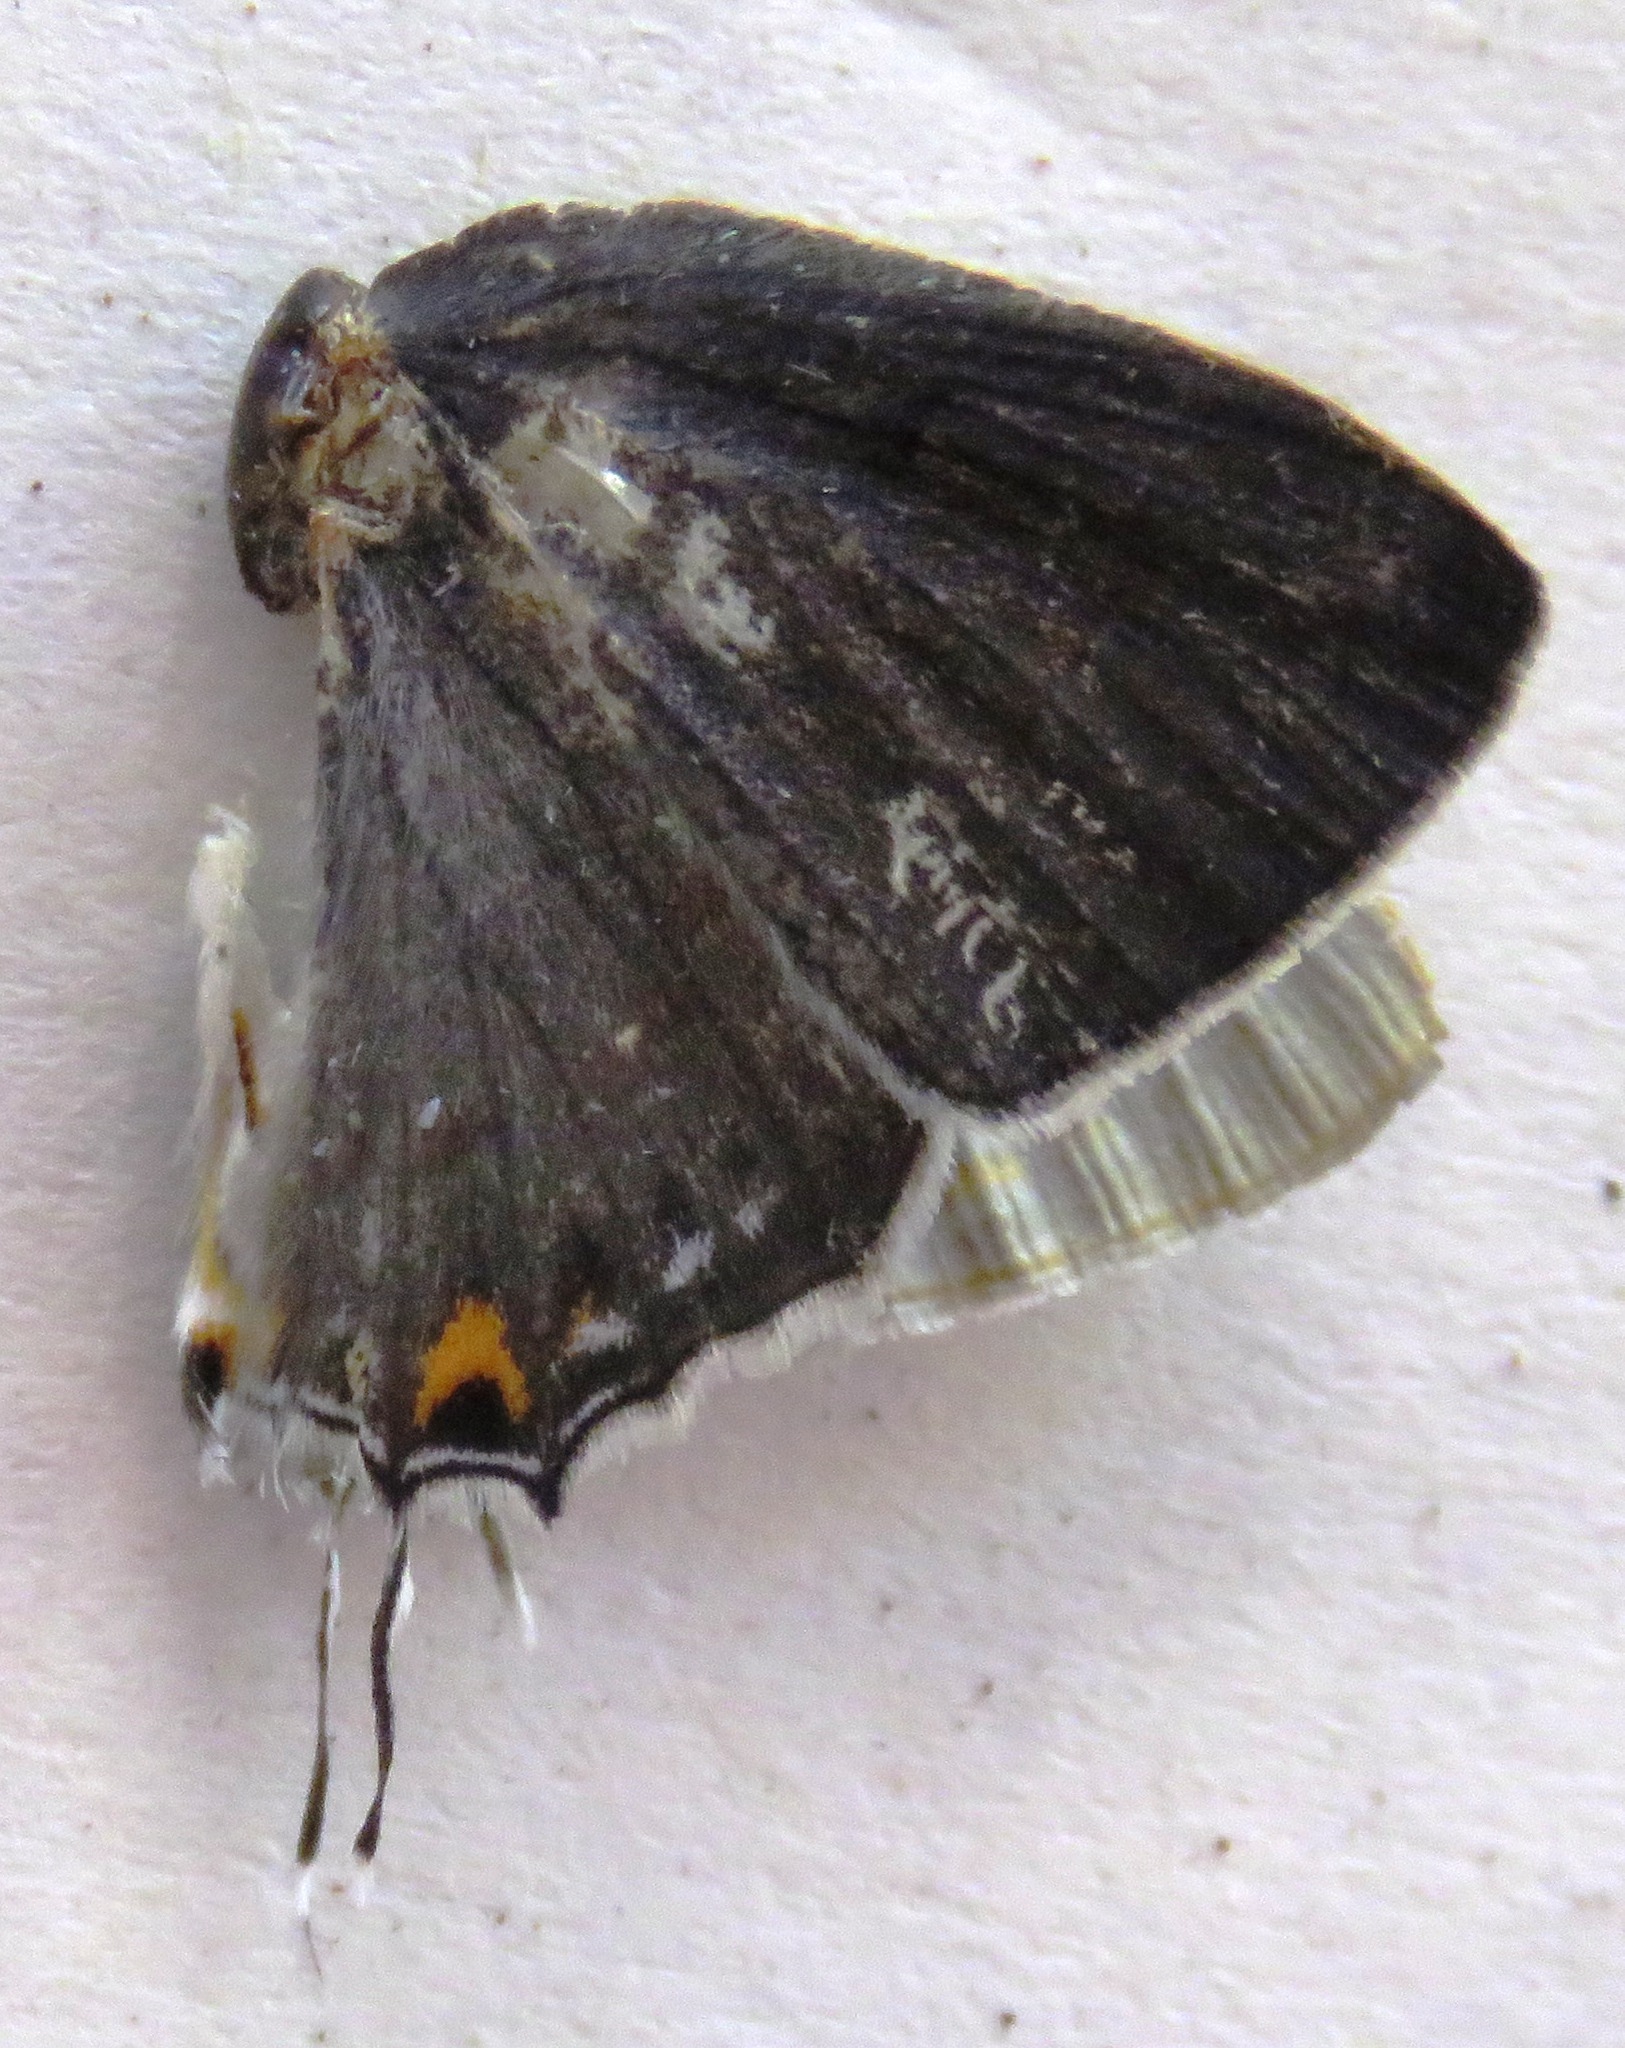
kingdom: Animalia
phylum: Arthropoda
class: Insecta
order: Lepidoptera
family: Lycaenidae
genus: Thecla
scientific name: Thecla ziba
